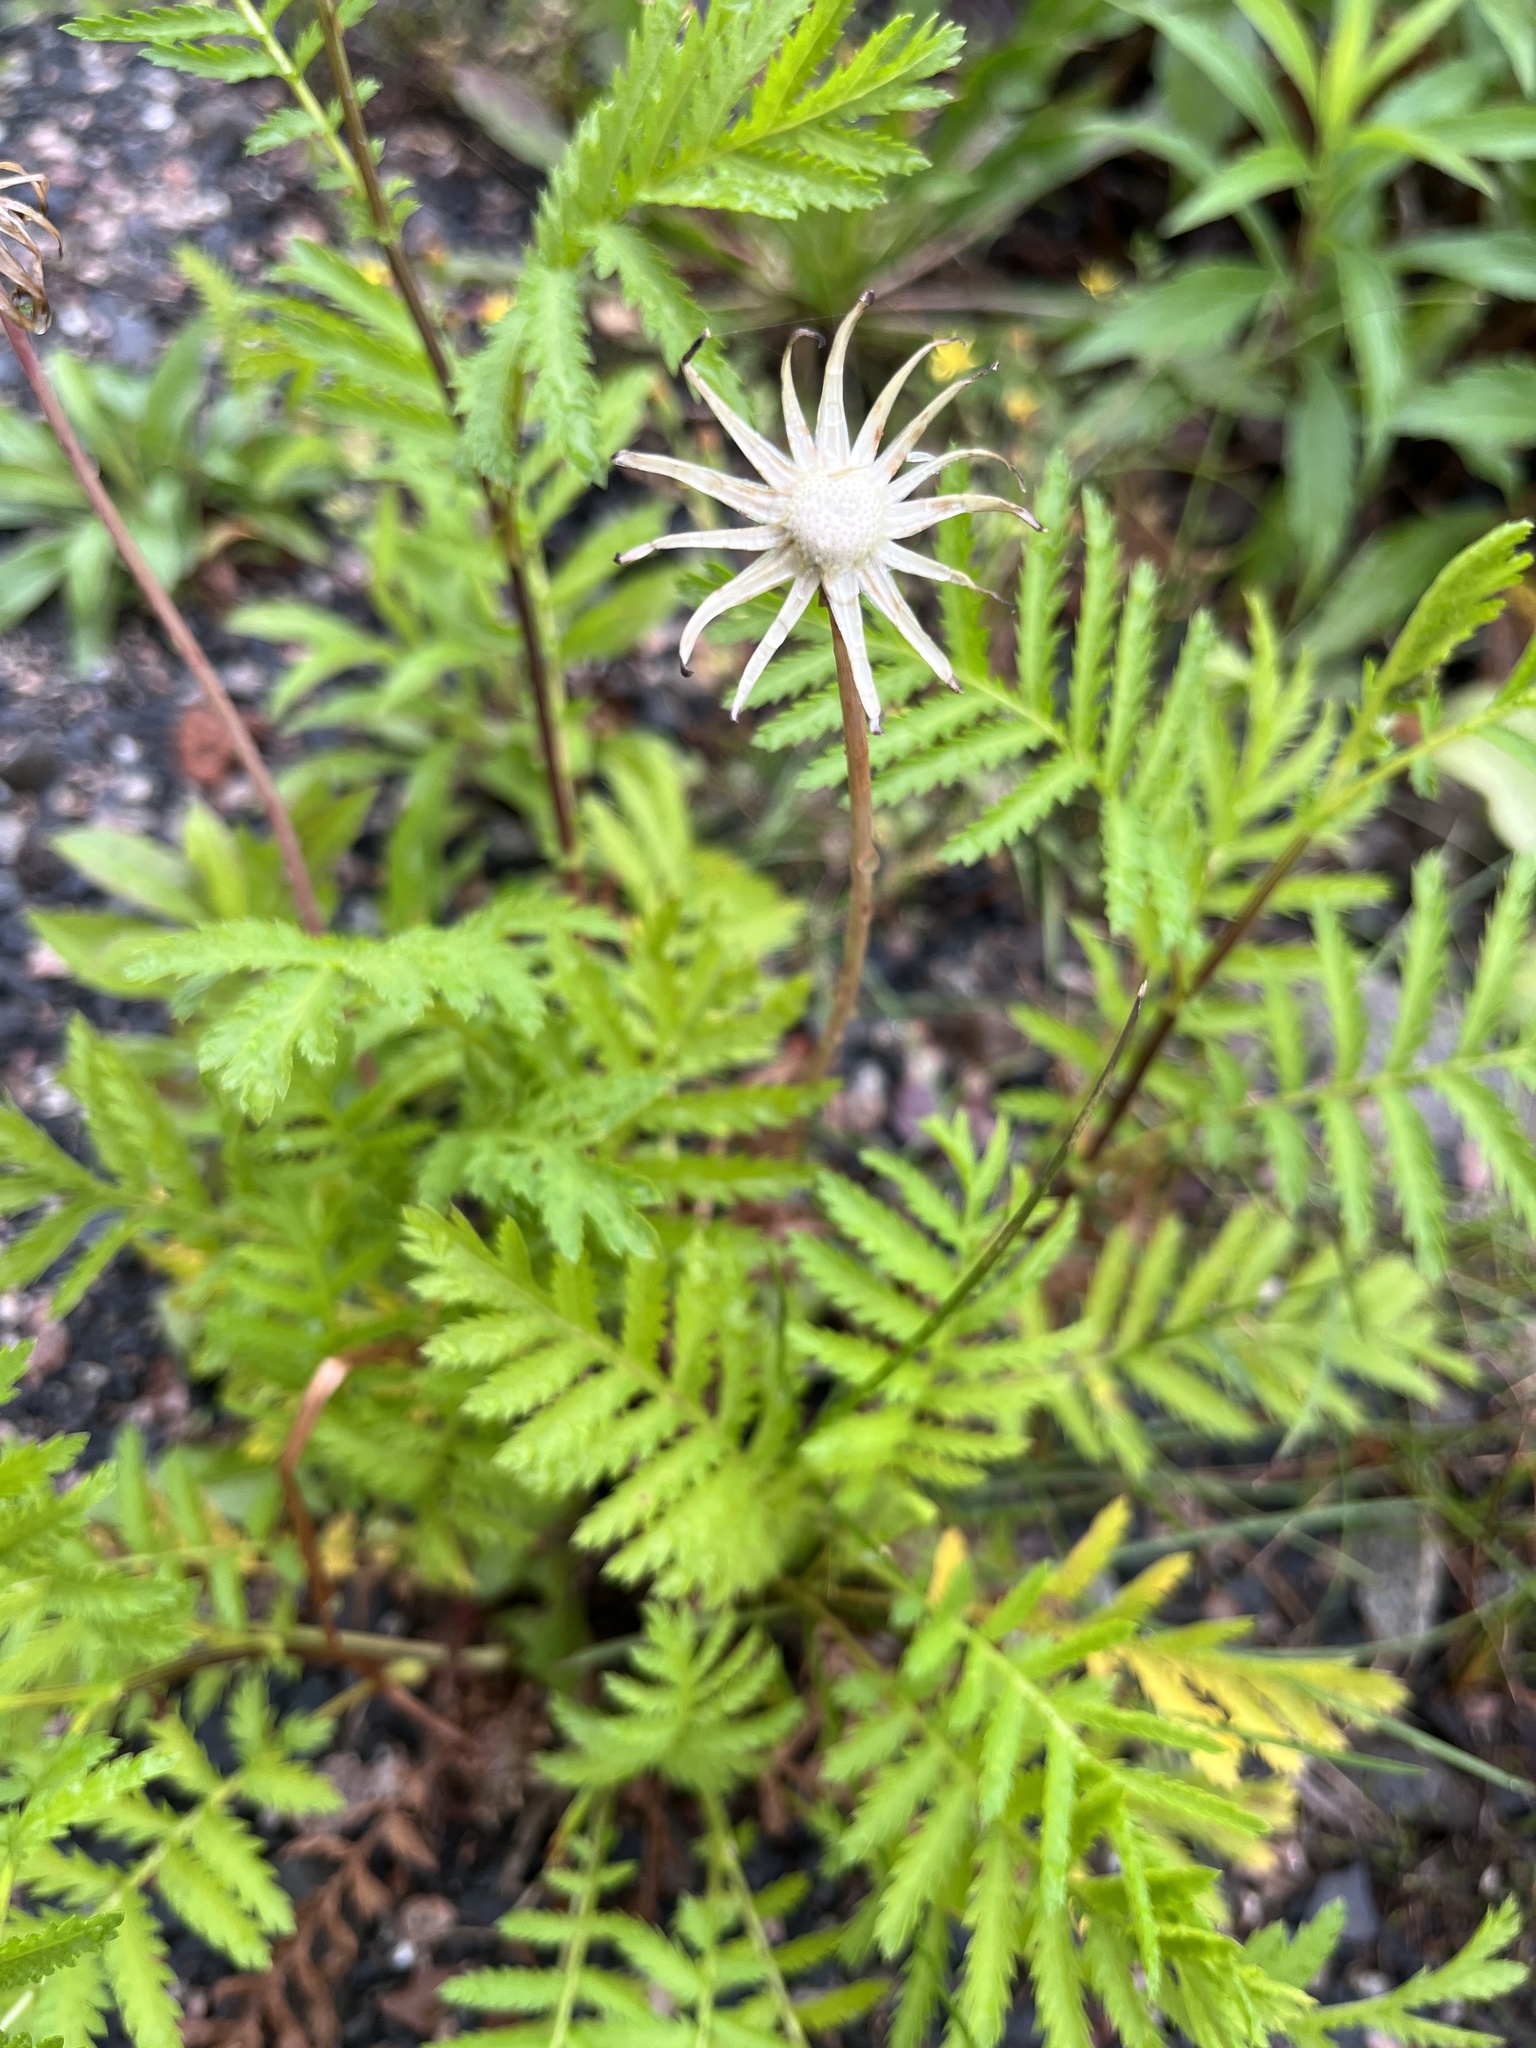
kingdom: Plantae
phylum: Tracheophyta
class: Magnoliopsida
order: Asterales
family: Asteraceae
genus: Tanacetum
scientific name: Tanacetum vulgare
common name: Common tansy
